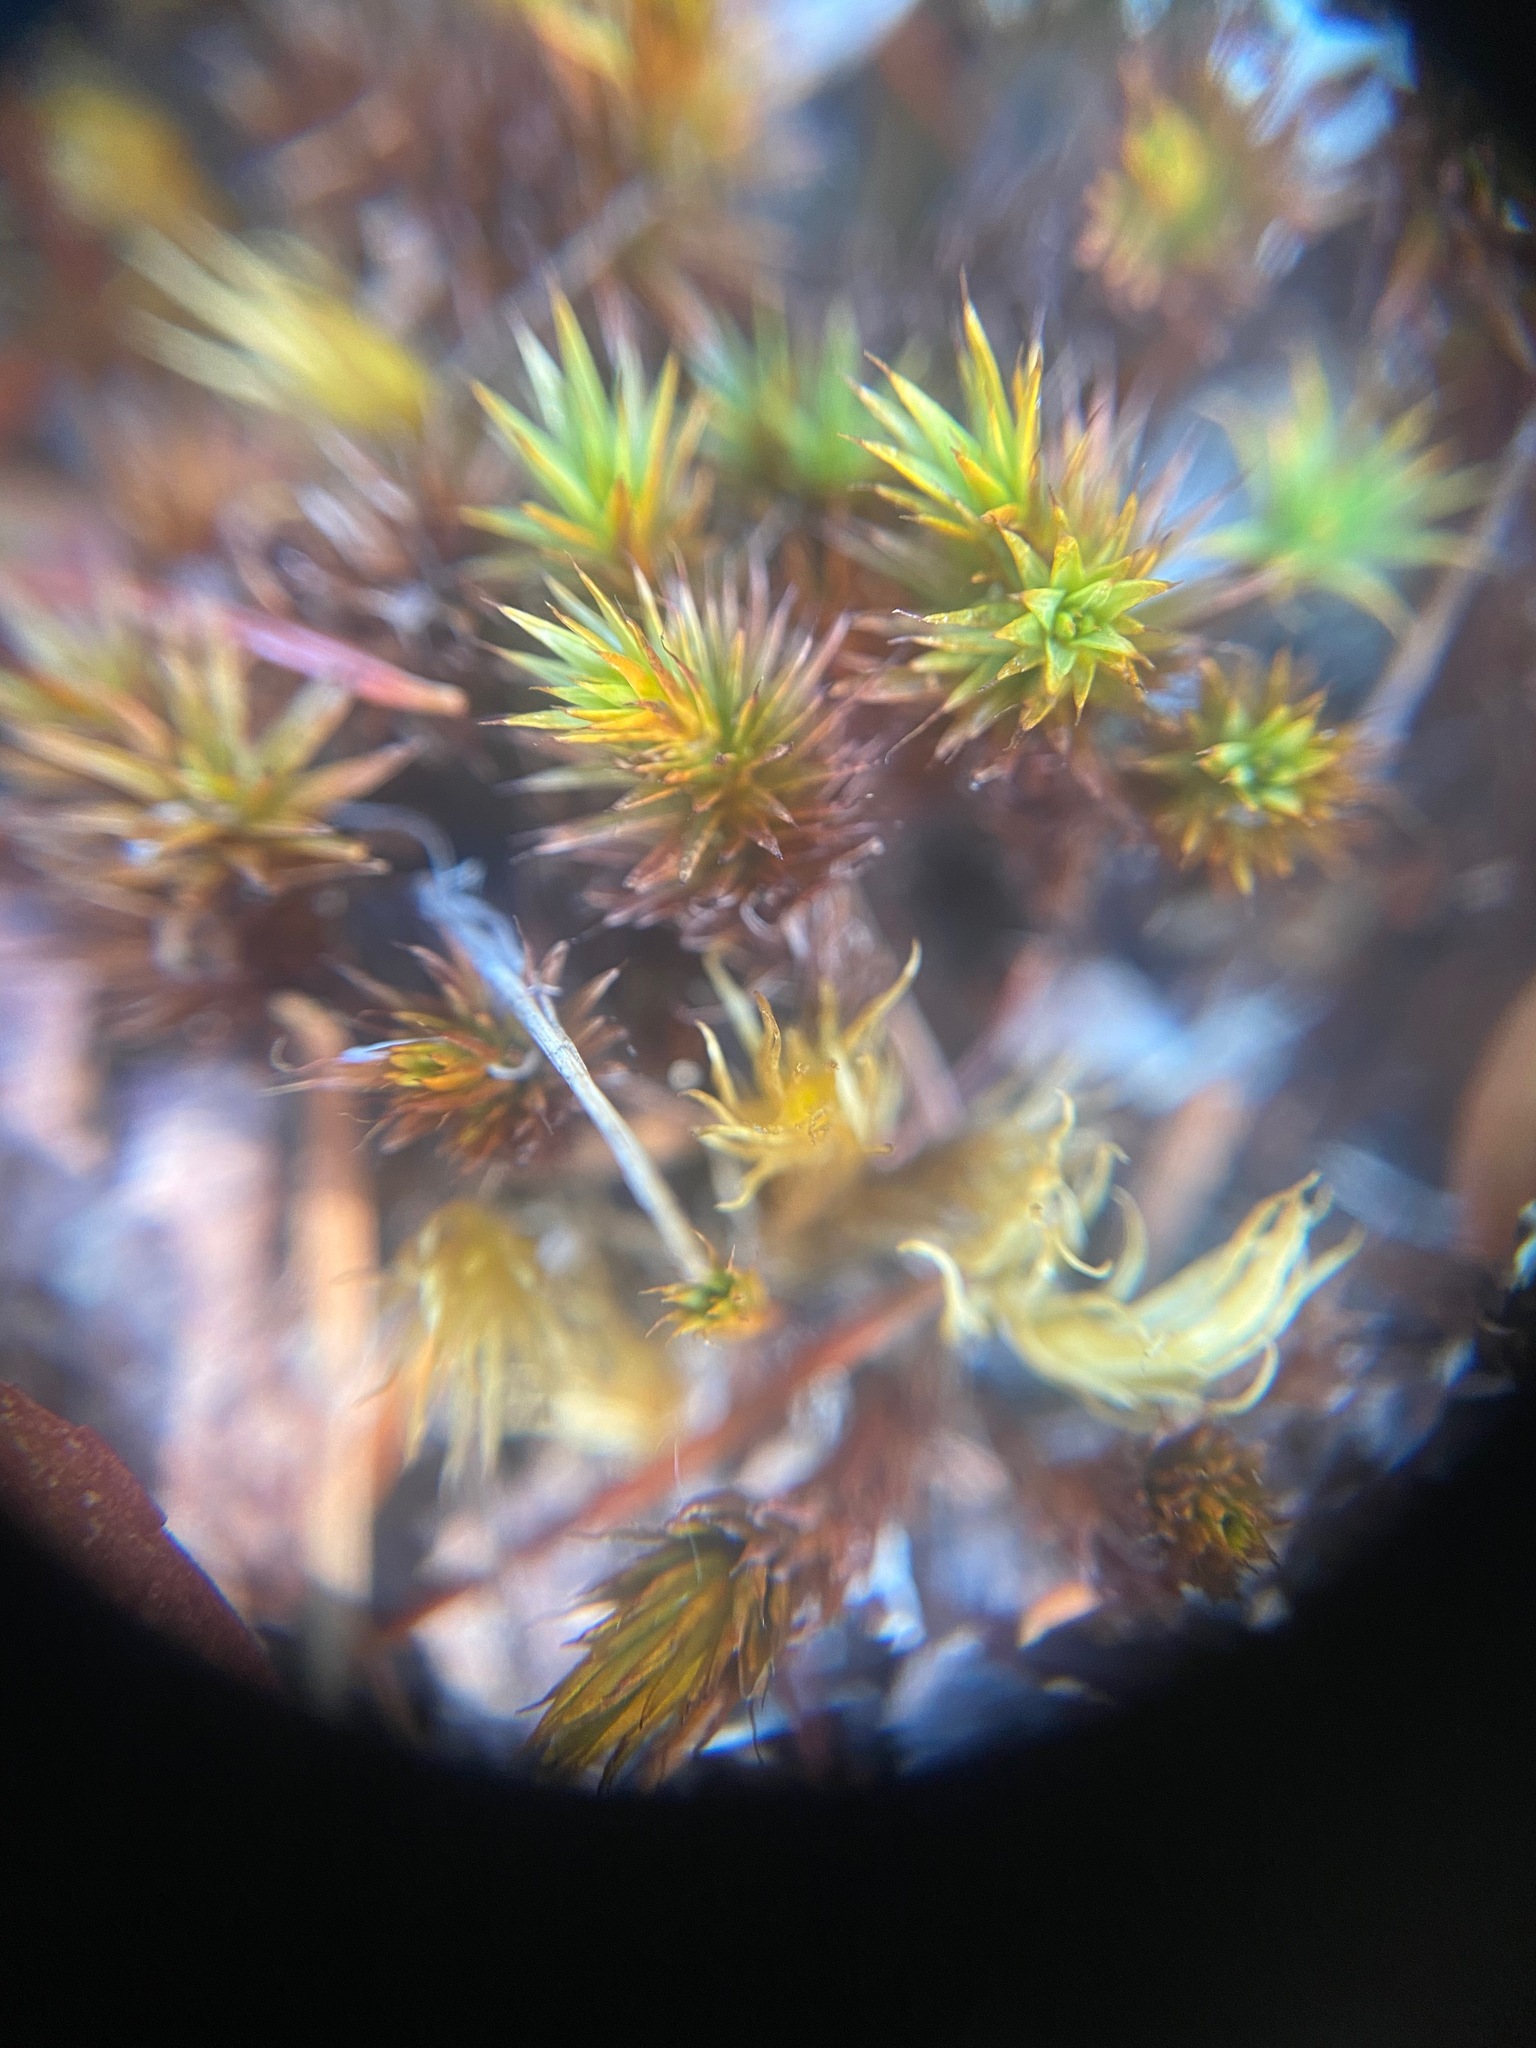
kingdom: Plantae
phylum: Bryophyta
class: Polytrichopsida
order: Polytrichales
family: Polytrichaceae
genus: Polytrichum
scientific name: Polytrichum piliferum
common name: Bristly haircap
